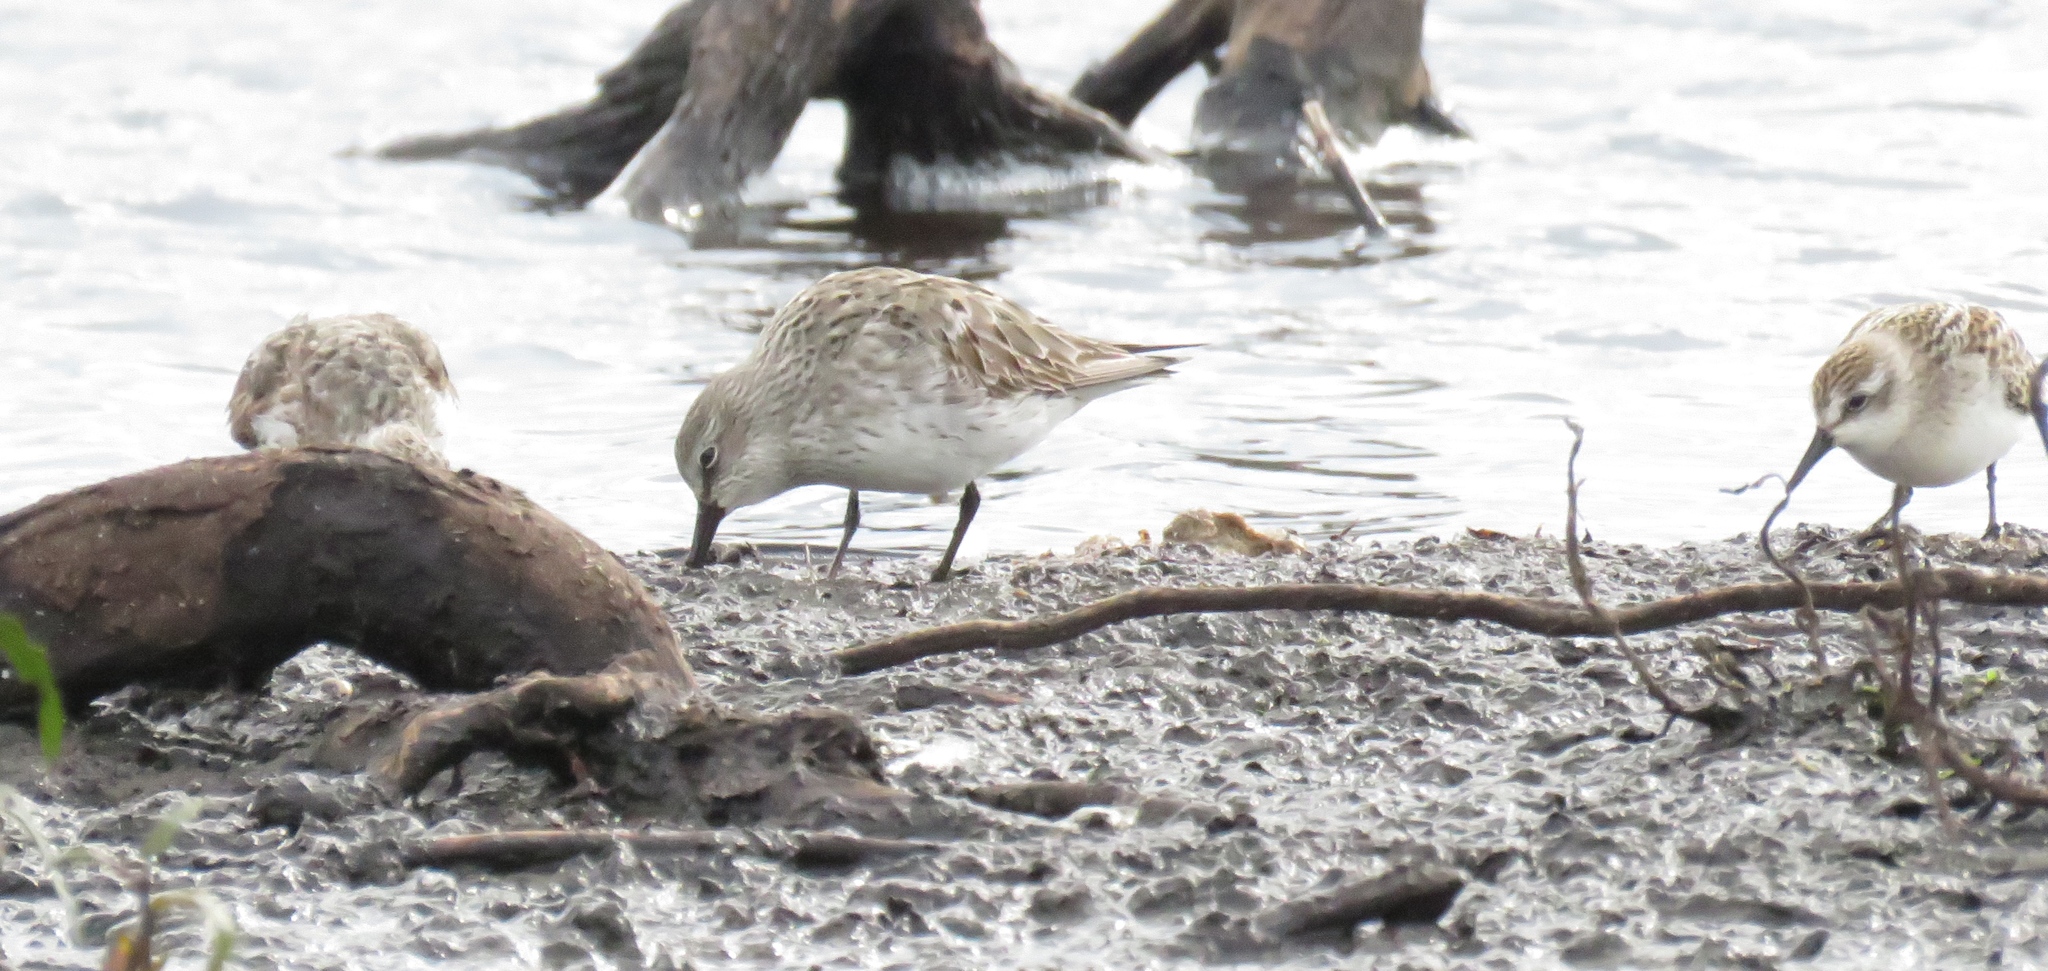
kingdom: Animalia
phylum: Chordata
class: Aves
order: Charadriiformes
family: Scolopacidae
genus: Calidris
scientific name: Calidris fuscicollis
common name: White-rumped sandpiper
